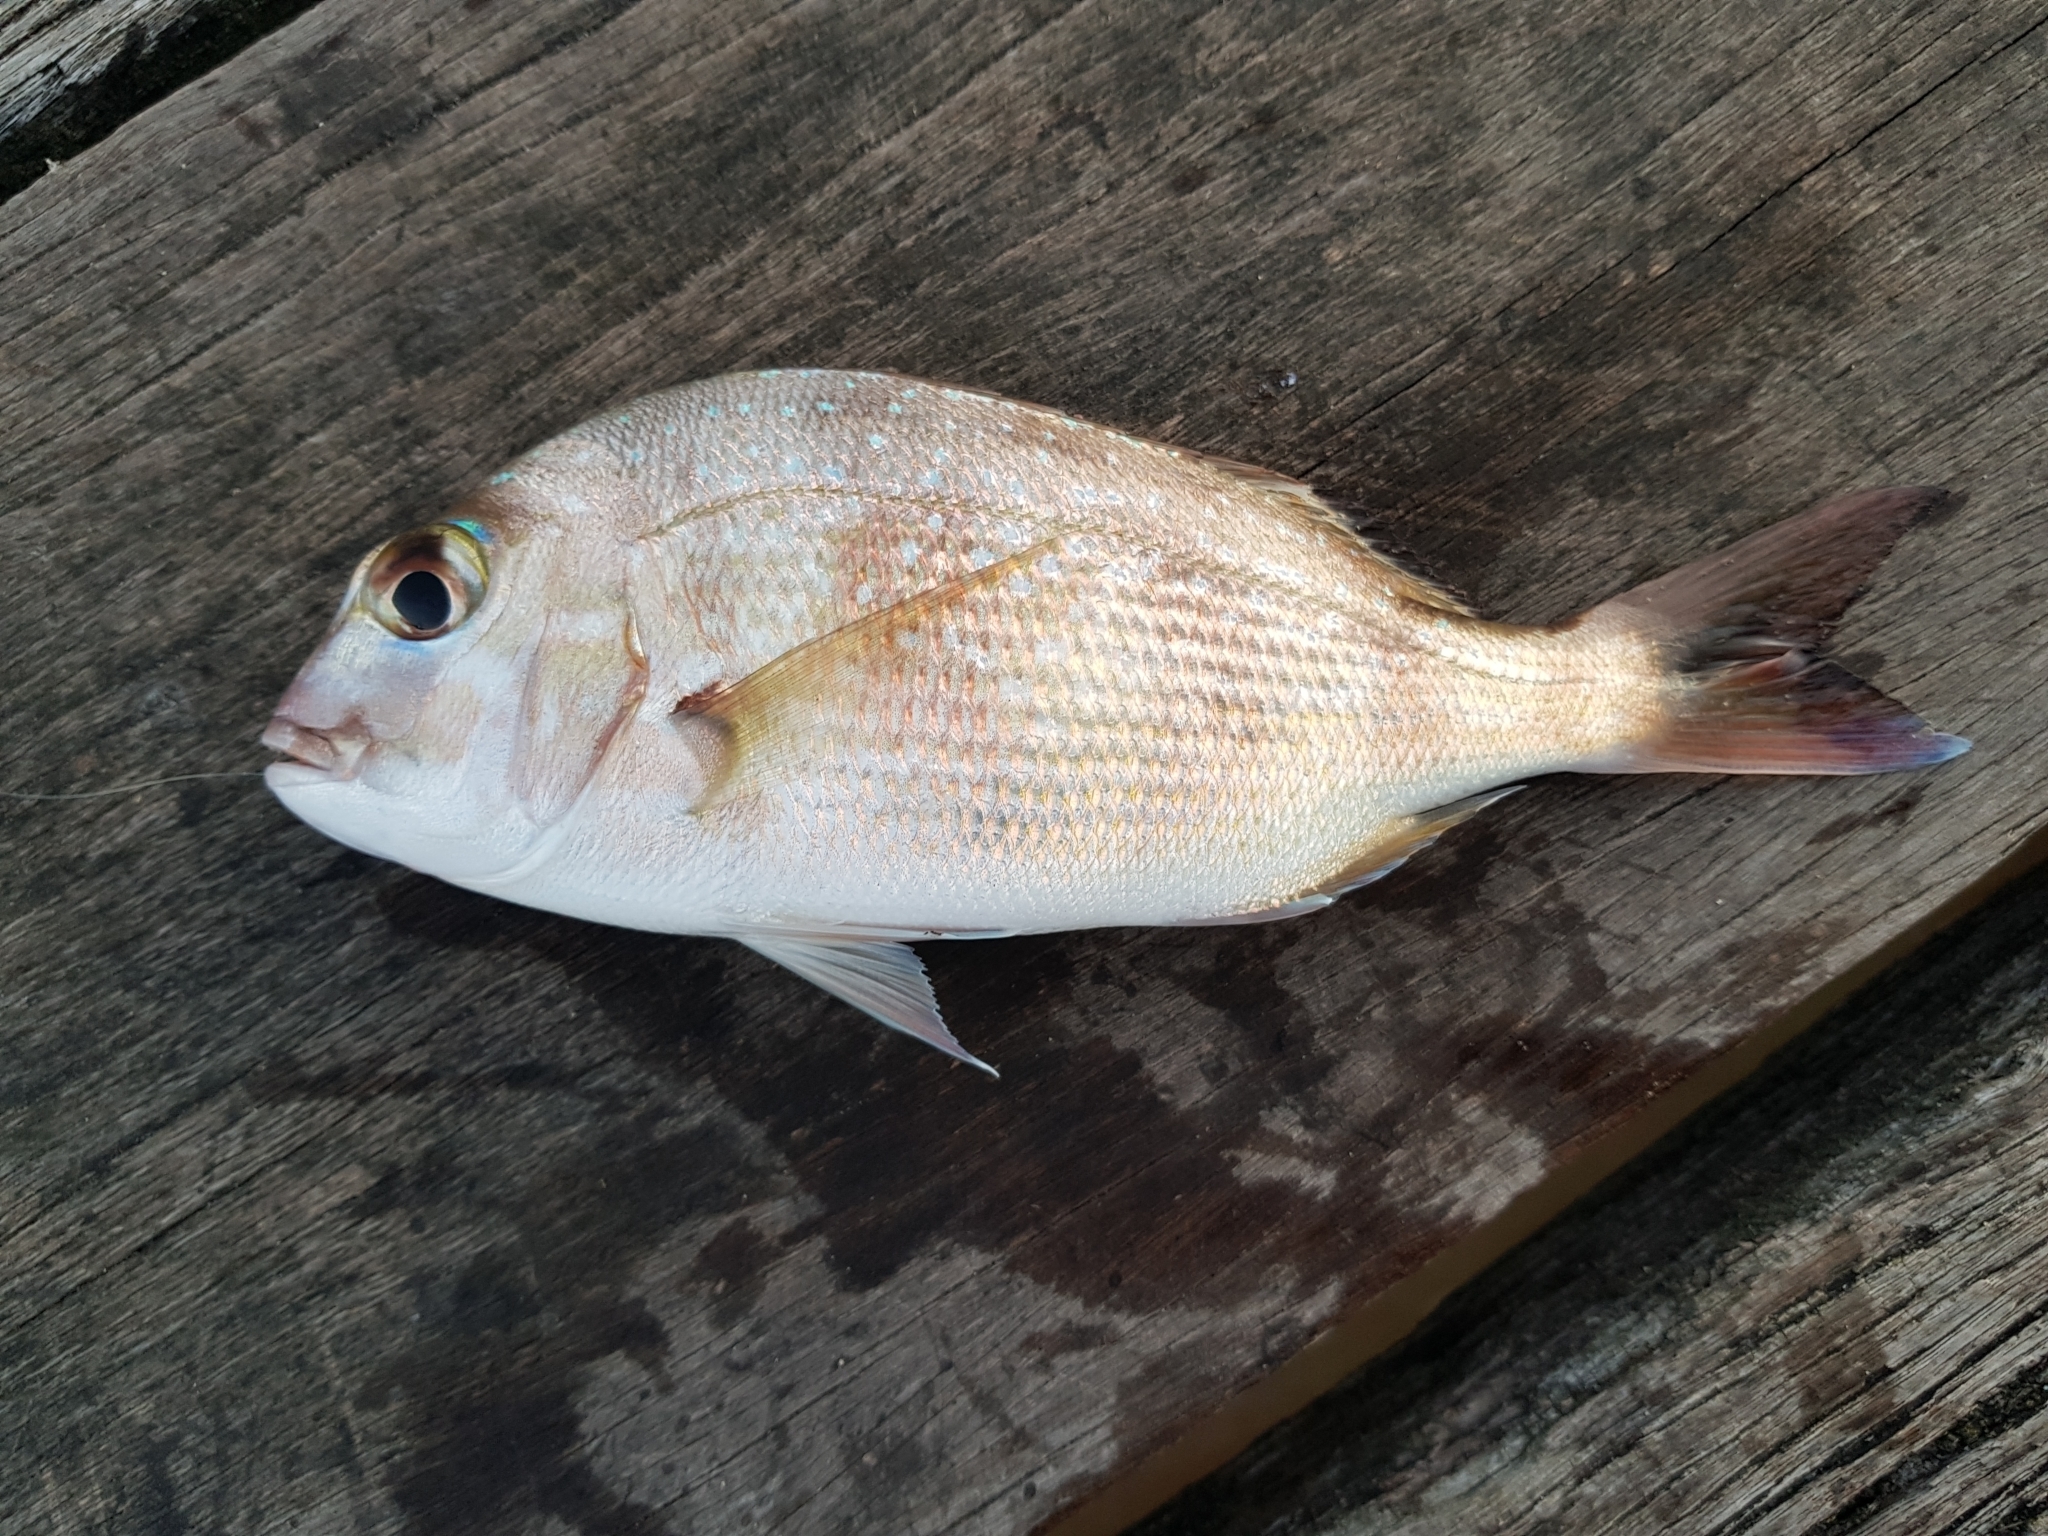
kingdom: Animalia
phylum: Chordata
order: Perciformes
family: Sparidae
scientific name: Sparidae
